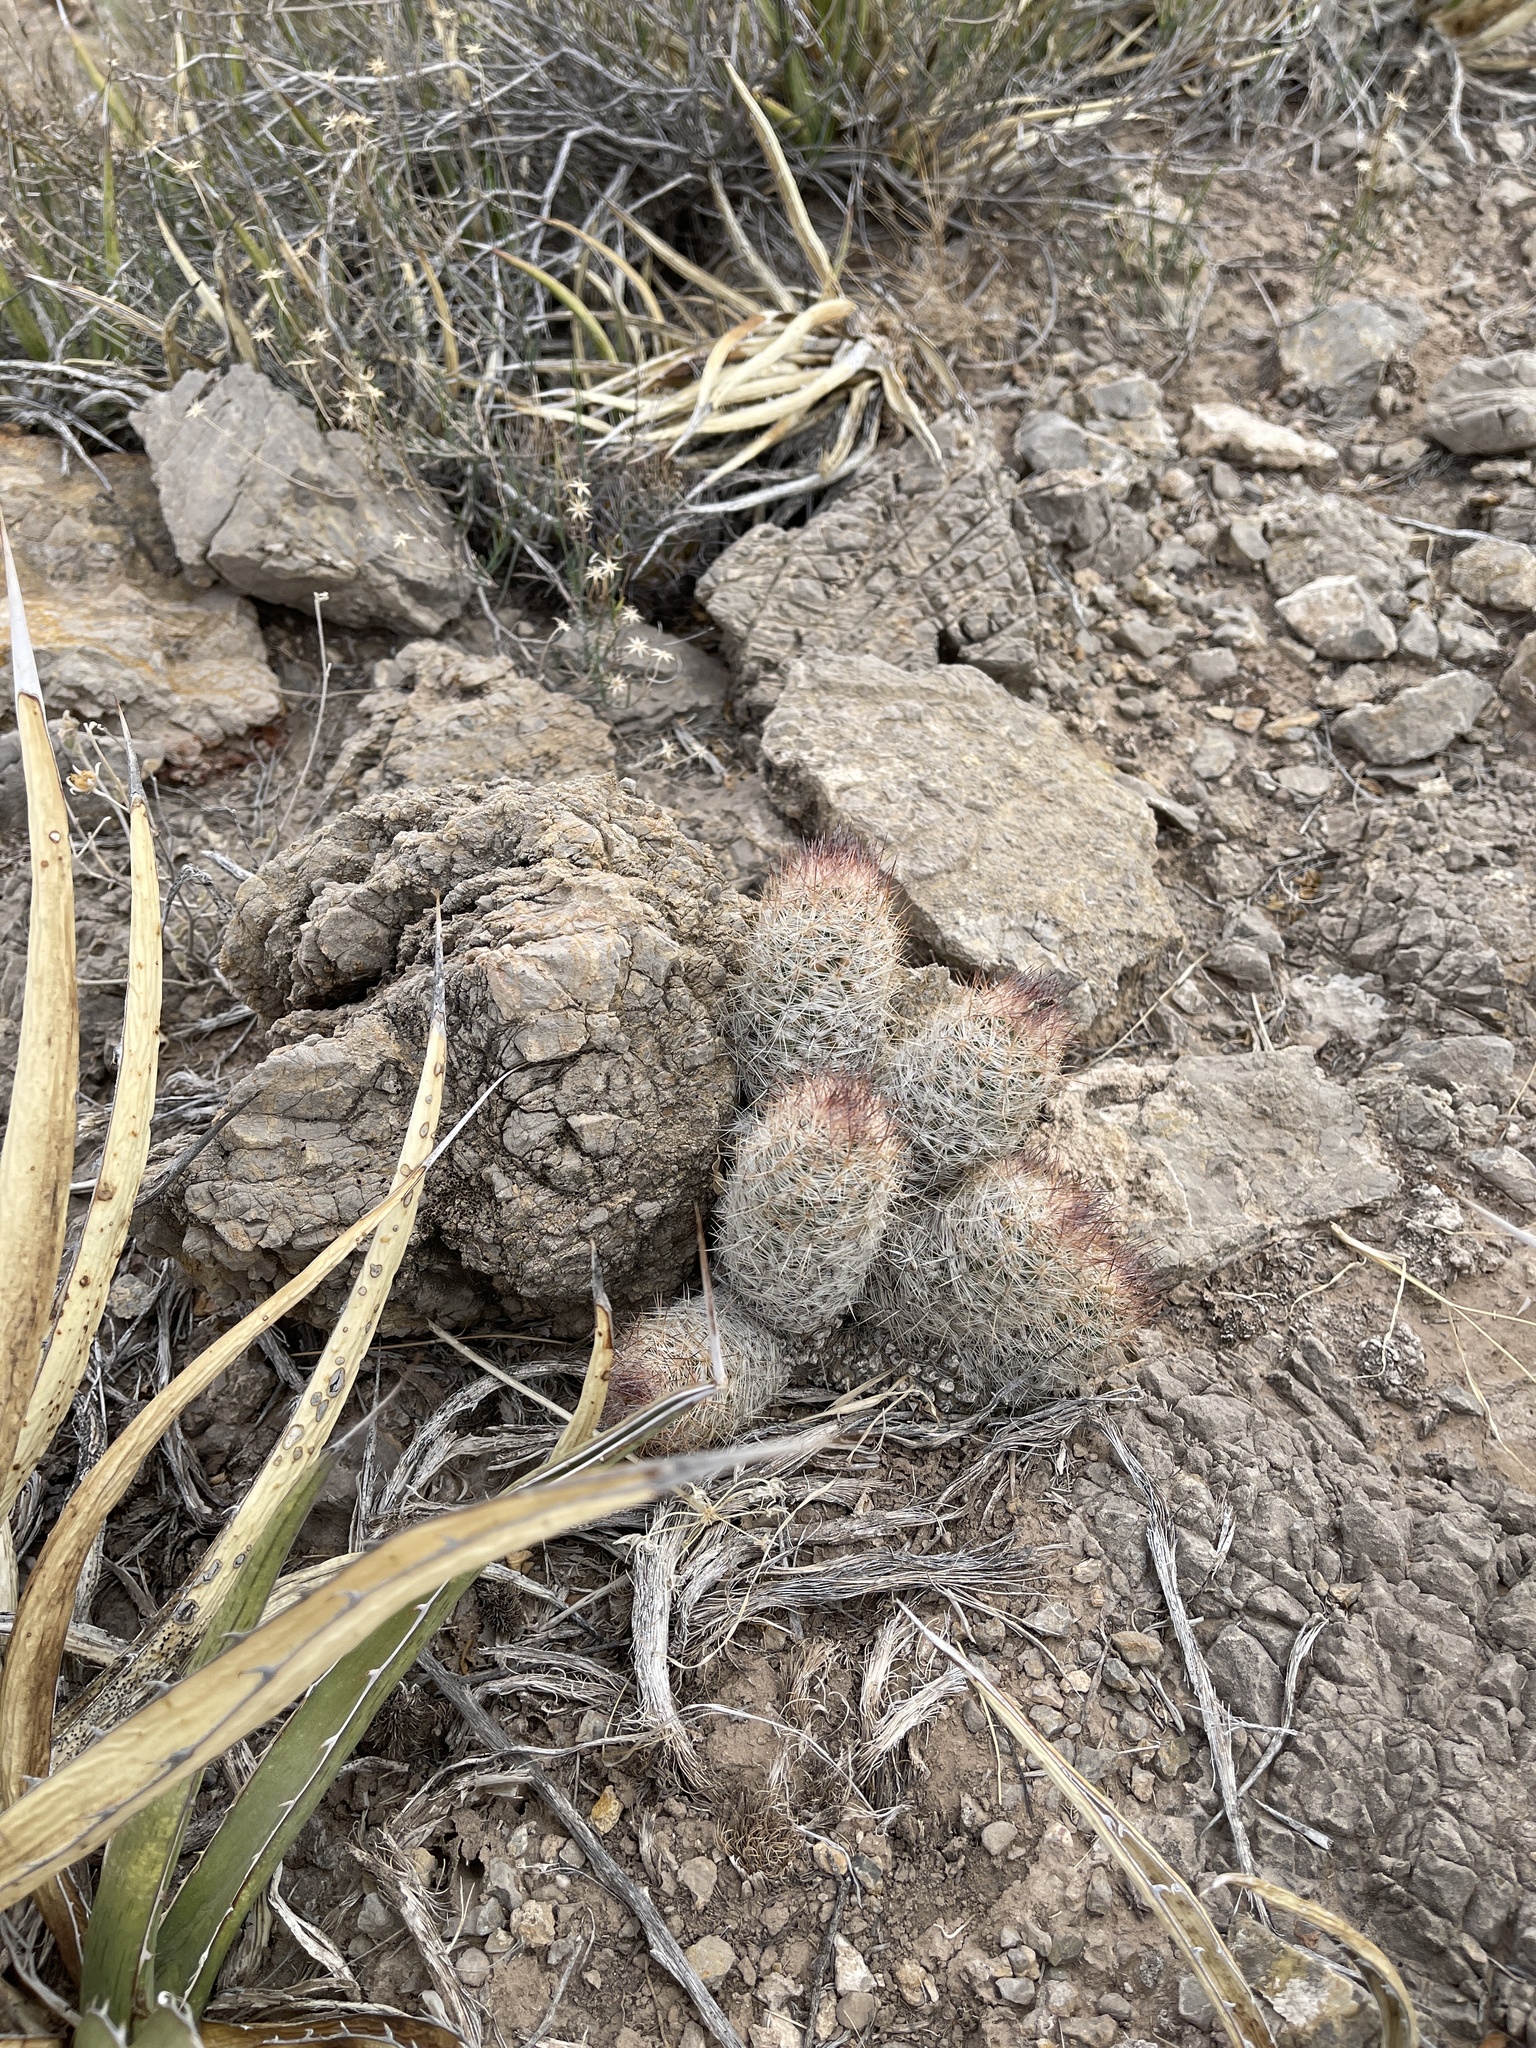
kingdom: Plantae
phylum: Tracheophyta
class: Magnoliopsida
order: Caryophyllales
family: Cactaceae
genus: Pelecyphora
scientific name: Pelecyphora tuberculosa
